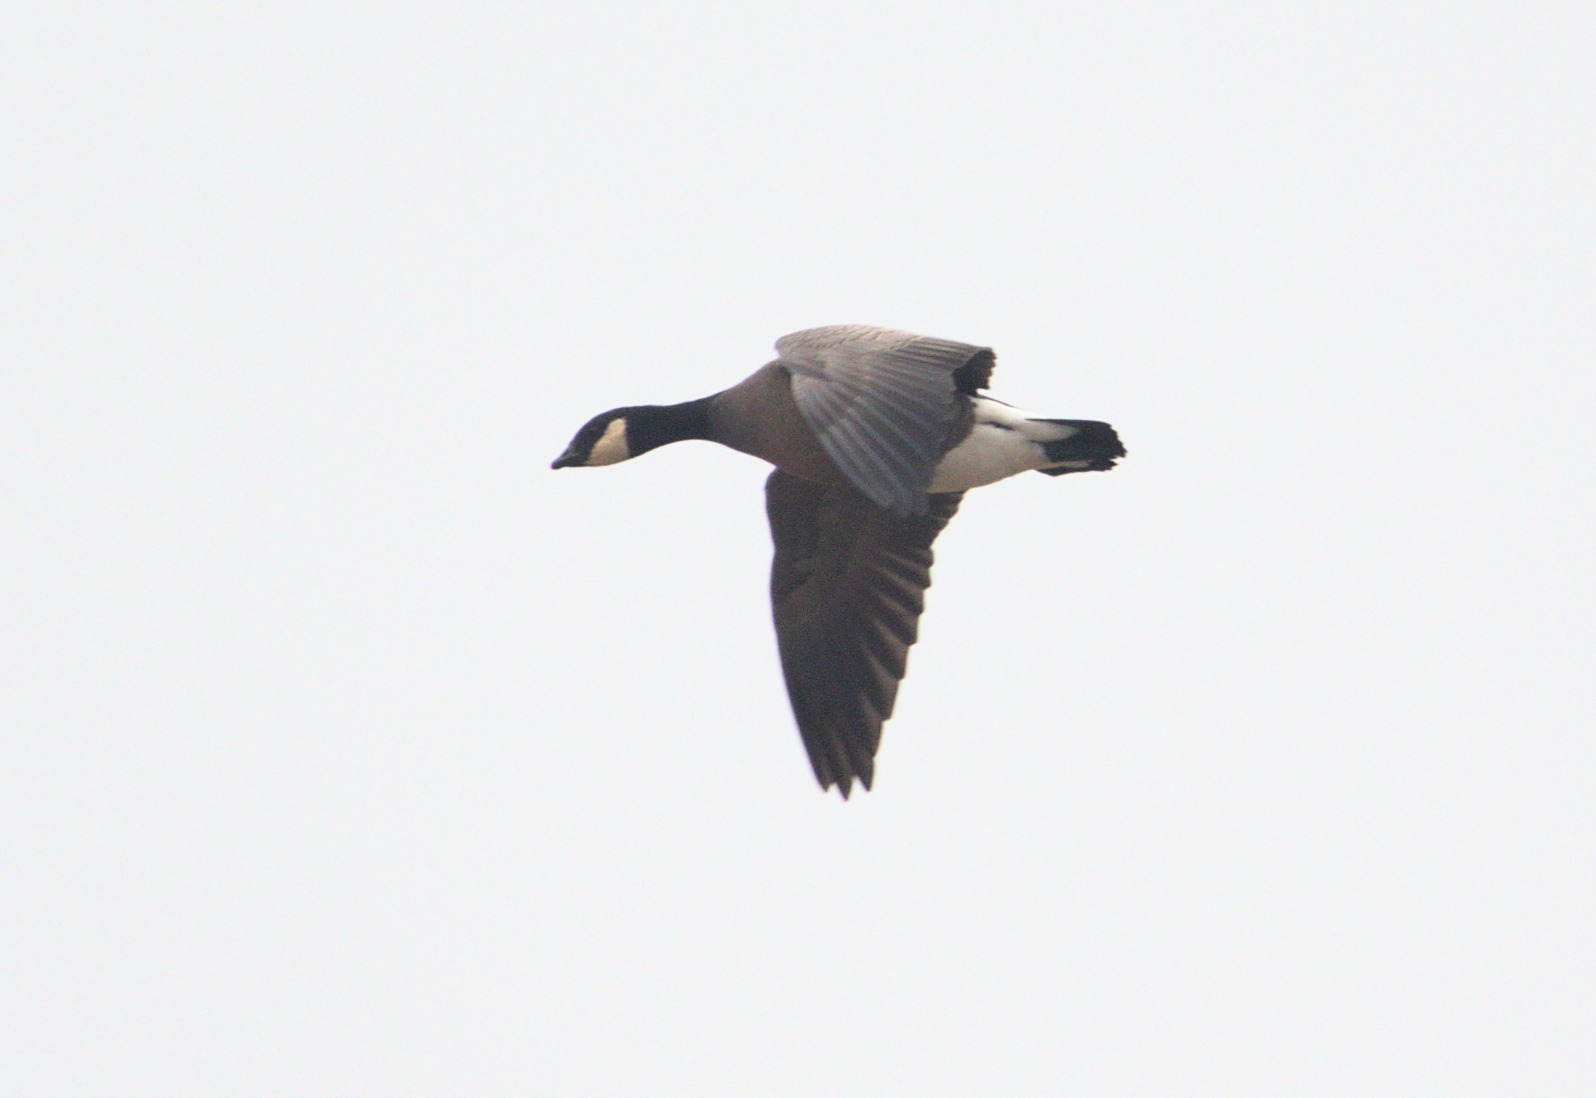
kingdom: Animalia
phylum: Chordata
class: Aves
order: Anseriformes
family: Anatidae
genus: Branta
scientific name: Branta hutchinsii
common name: Cackling goose
